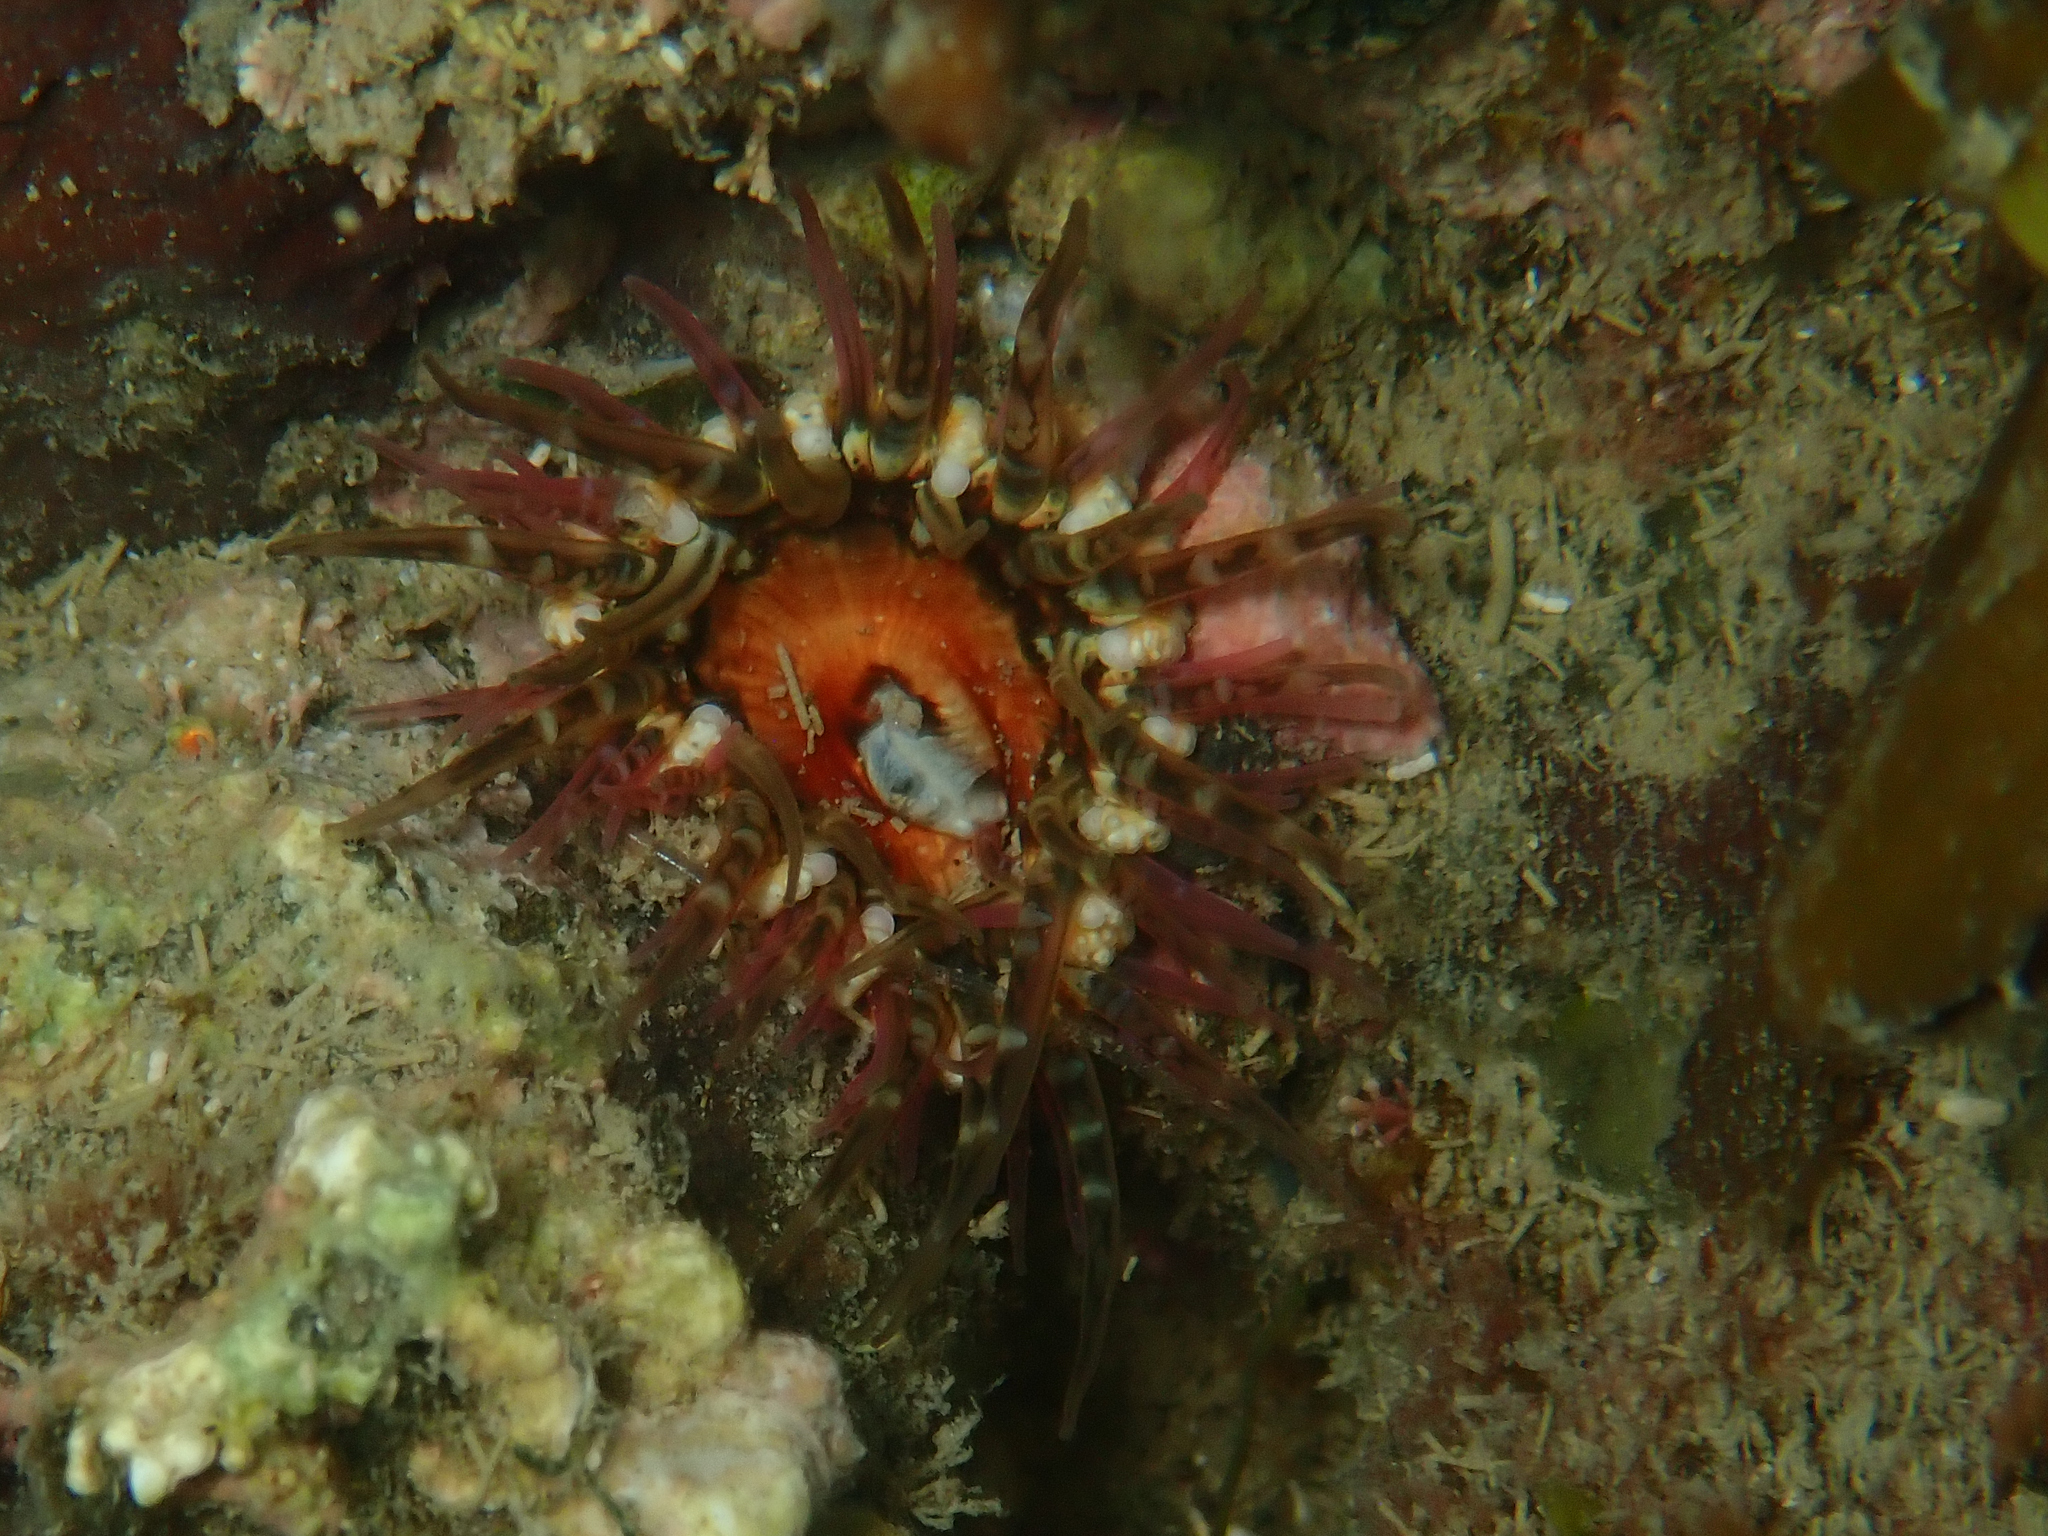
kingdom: Animalia
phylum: Cnidaria
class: Anthozoa
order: Actiniaria
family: Actiniidae
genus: Oulactis
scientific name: Oulactis muscosa
